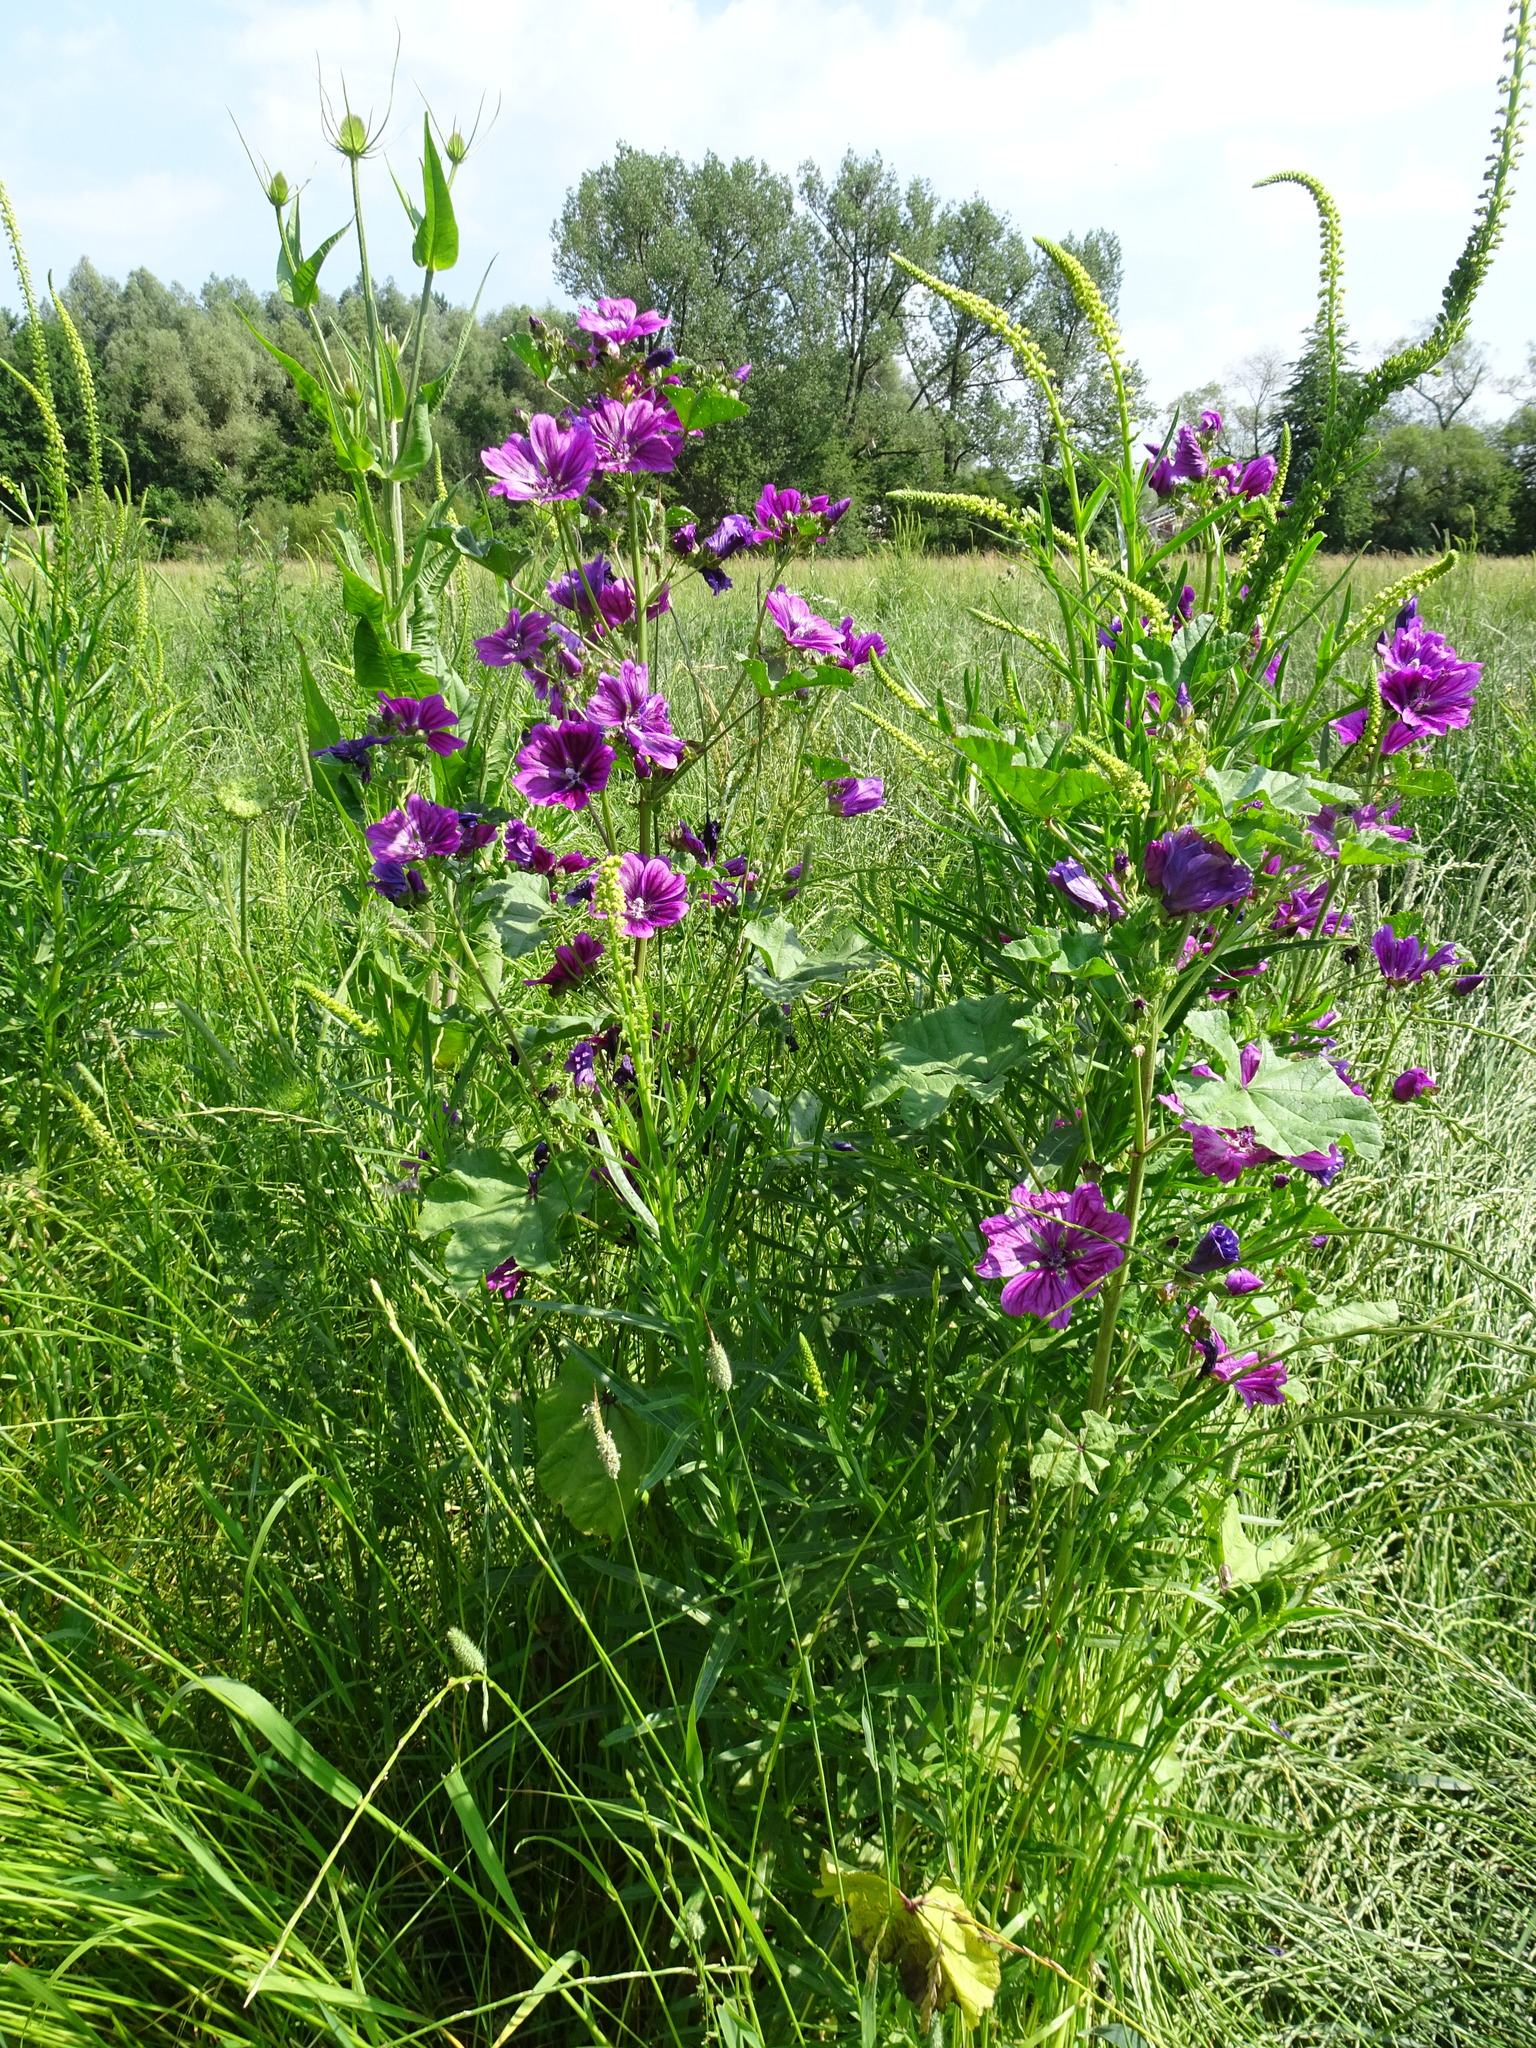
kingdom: Plantae
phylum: Tracheophyta
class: Magnoliopsida
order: Malvales
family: Malvaceae
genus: Malva
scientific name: Malva sylvestris
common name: Common mallow
